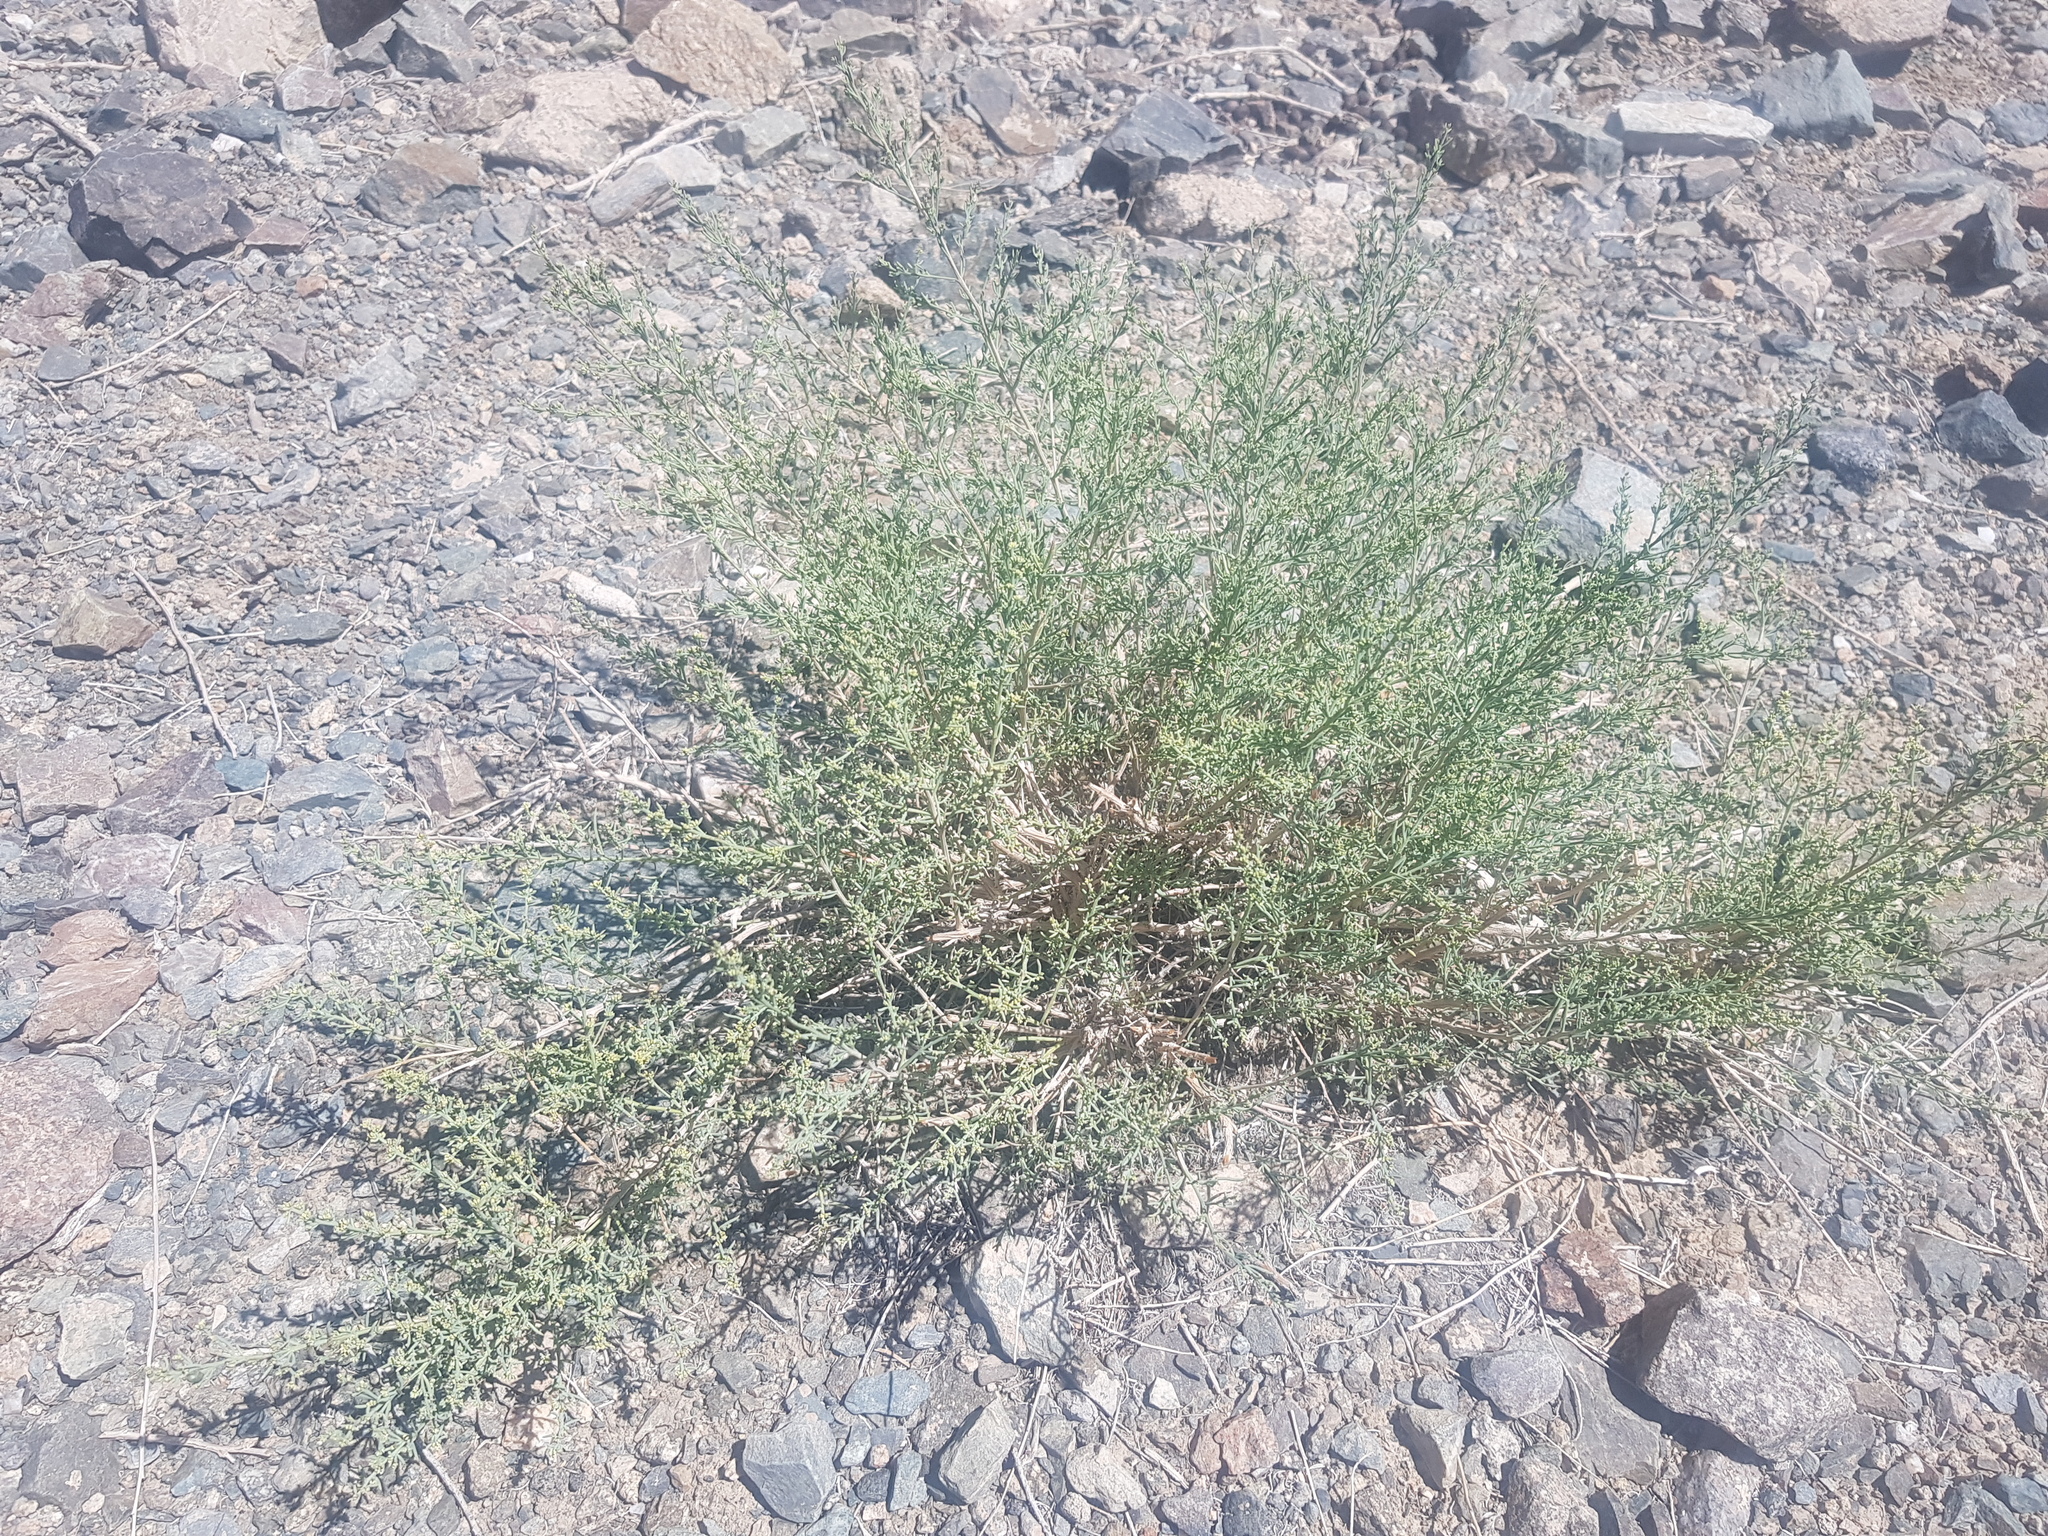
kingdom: Plantae
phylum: Tracheophyta
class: Magnoliopsida
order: Caryophyllales
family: Amaranthaceae
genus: Sympegma
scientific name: Sympegma regelii
